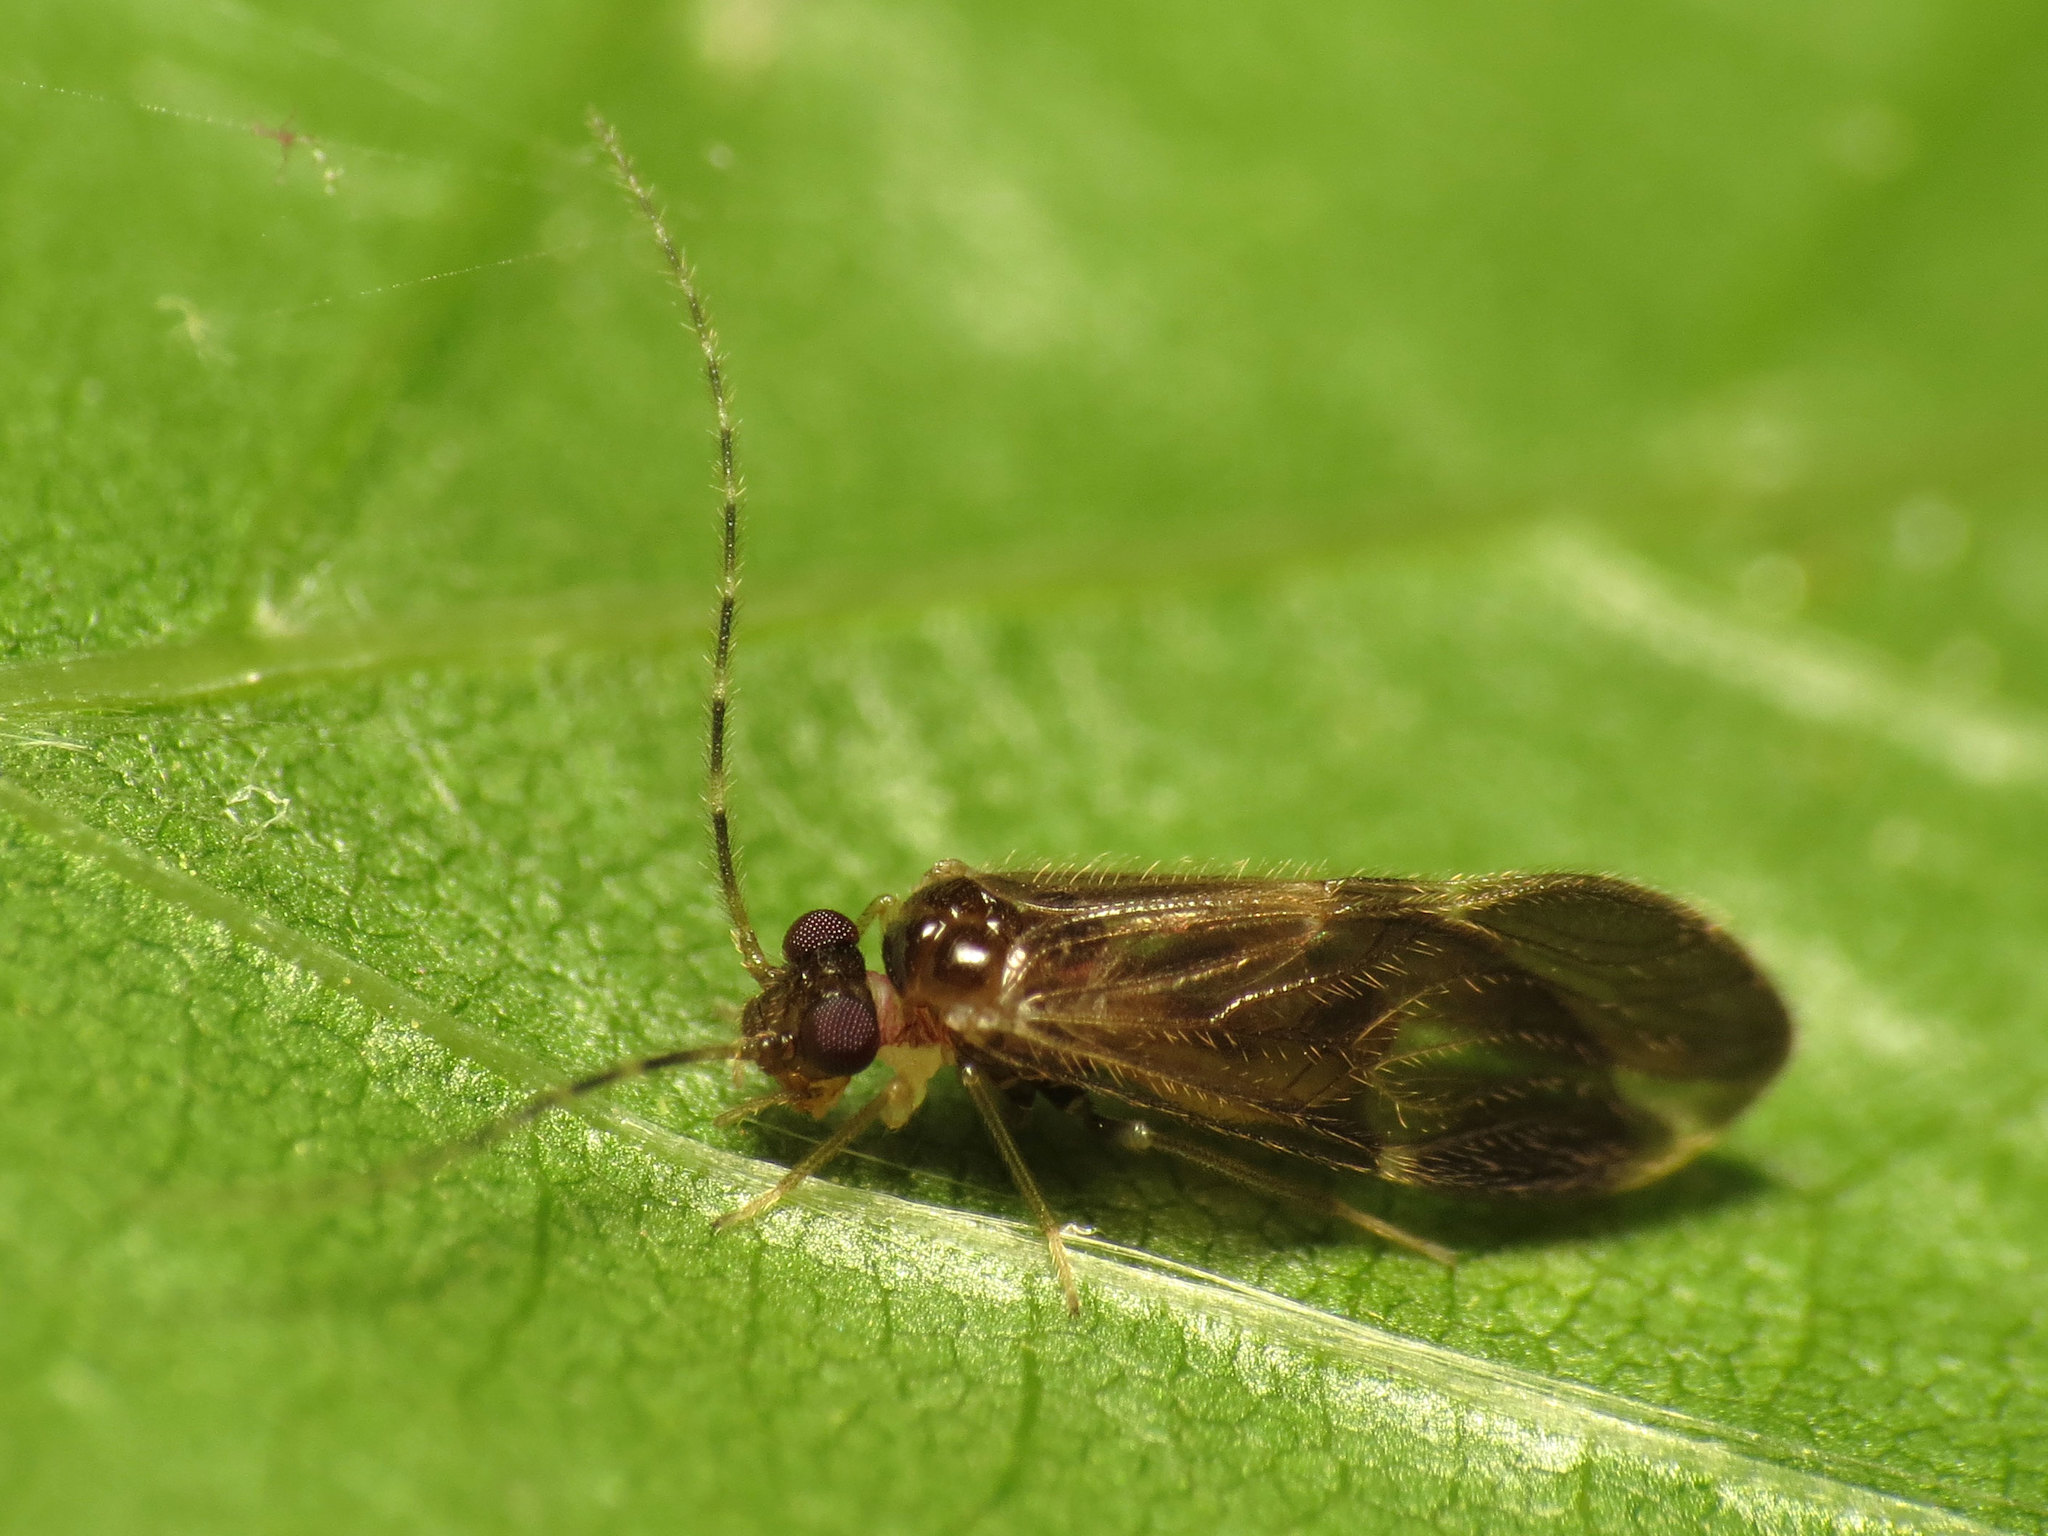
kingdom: Animalia
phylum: Arthropoda
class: Insecta
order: Psocodea
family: Amphipsocidae
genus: Polypsocus
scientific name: Polypsocus corruptus
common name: Corrupt barklouse
